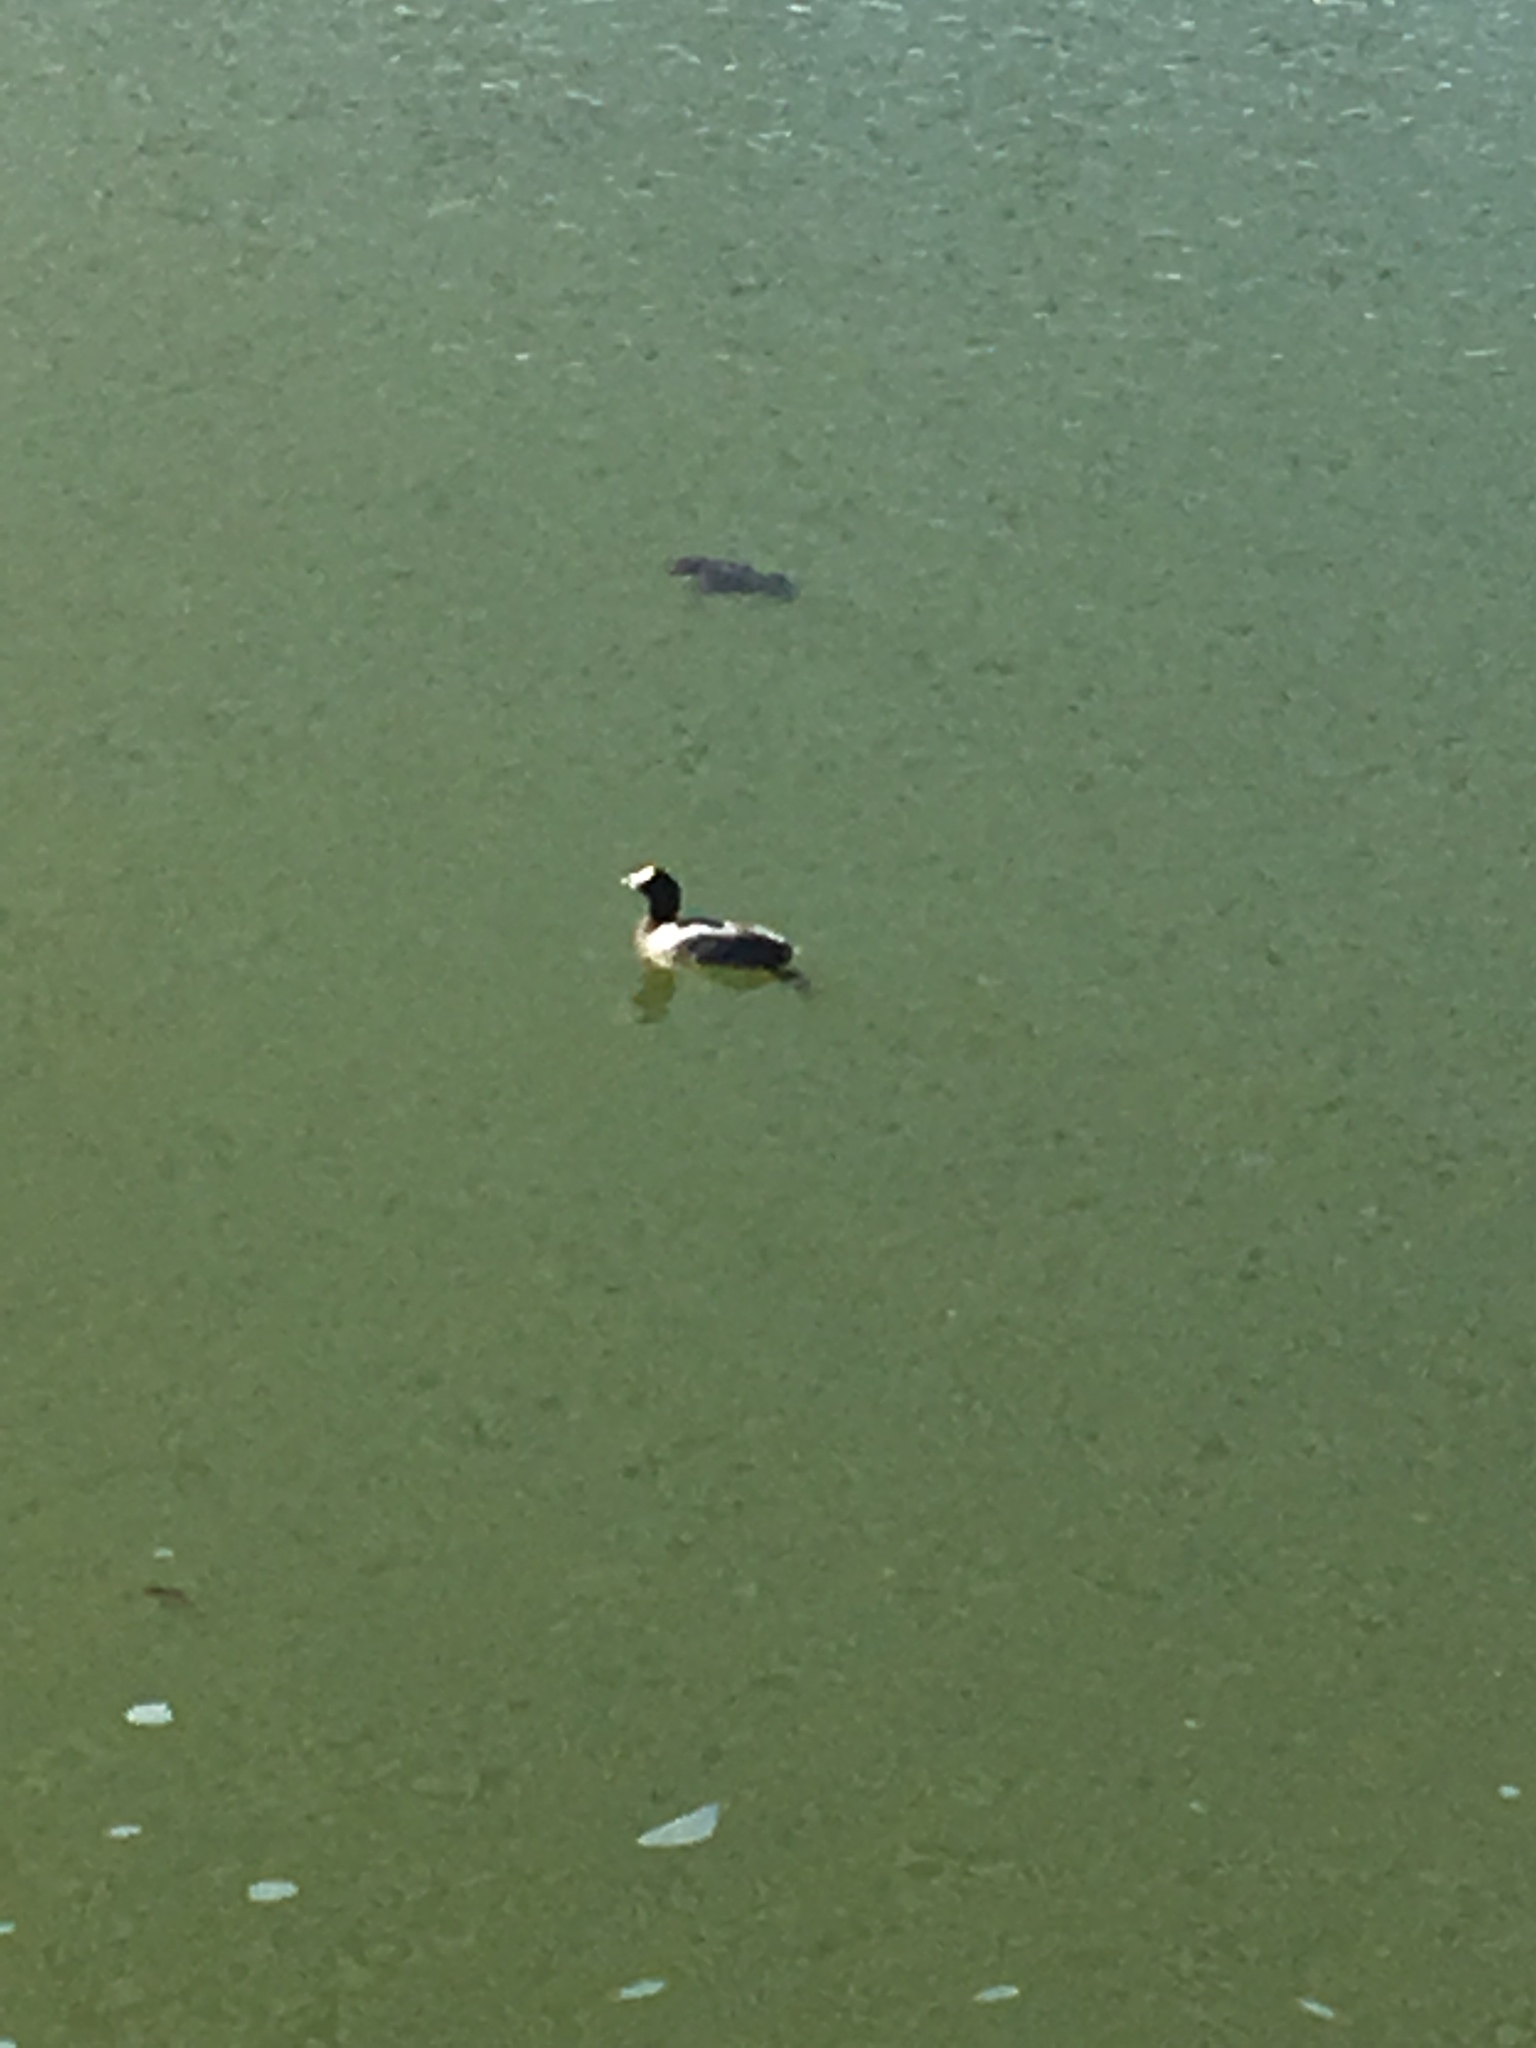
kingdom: Animalia
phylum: Chordata
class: Aves
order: Gruiformes
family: Rallidae
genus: Fulica
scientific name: Fulica americana
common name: American coot
